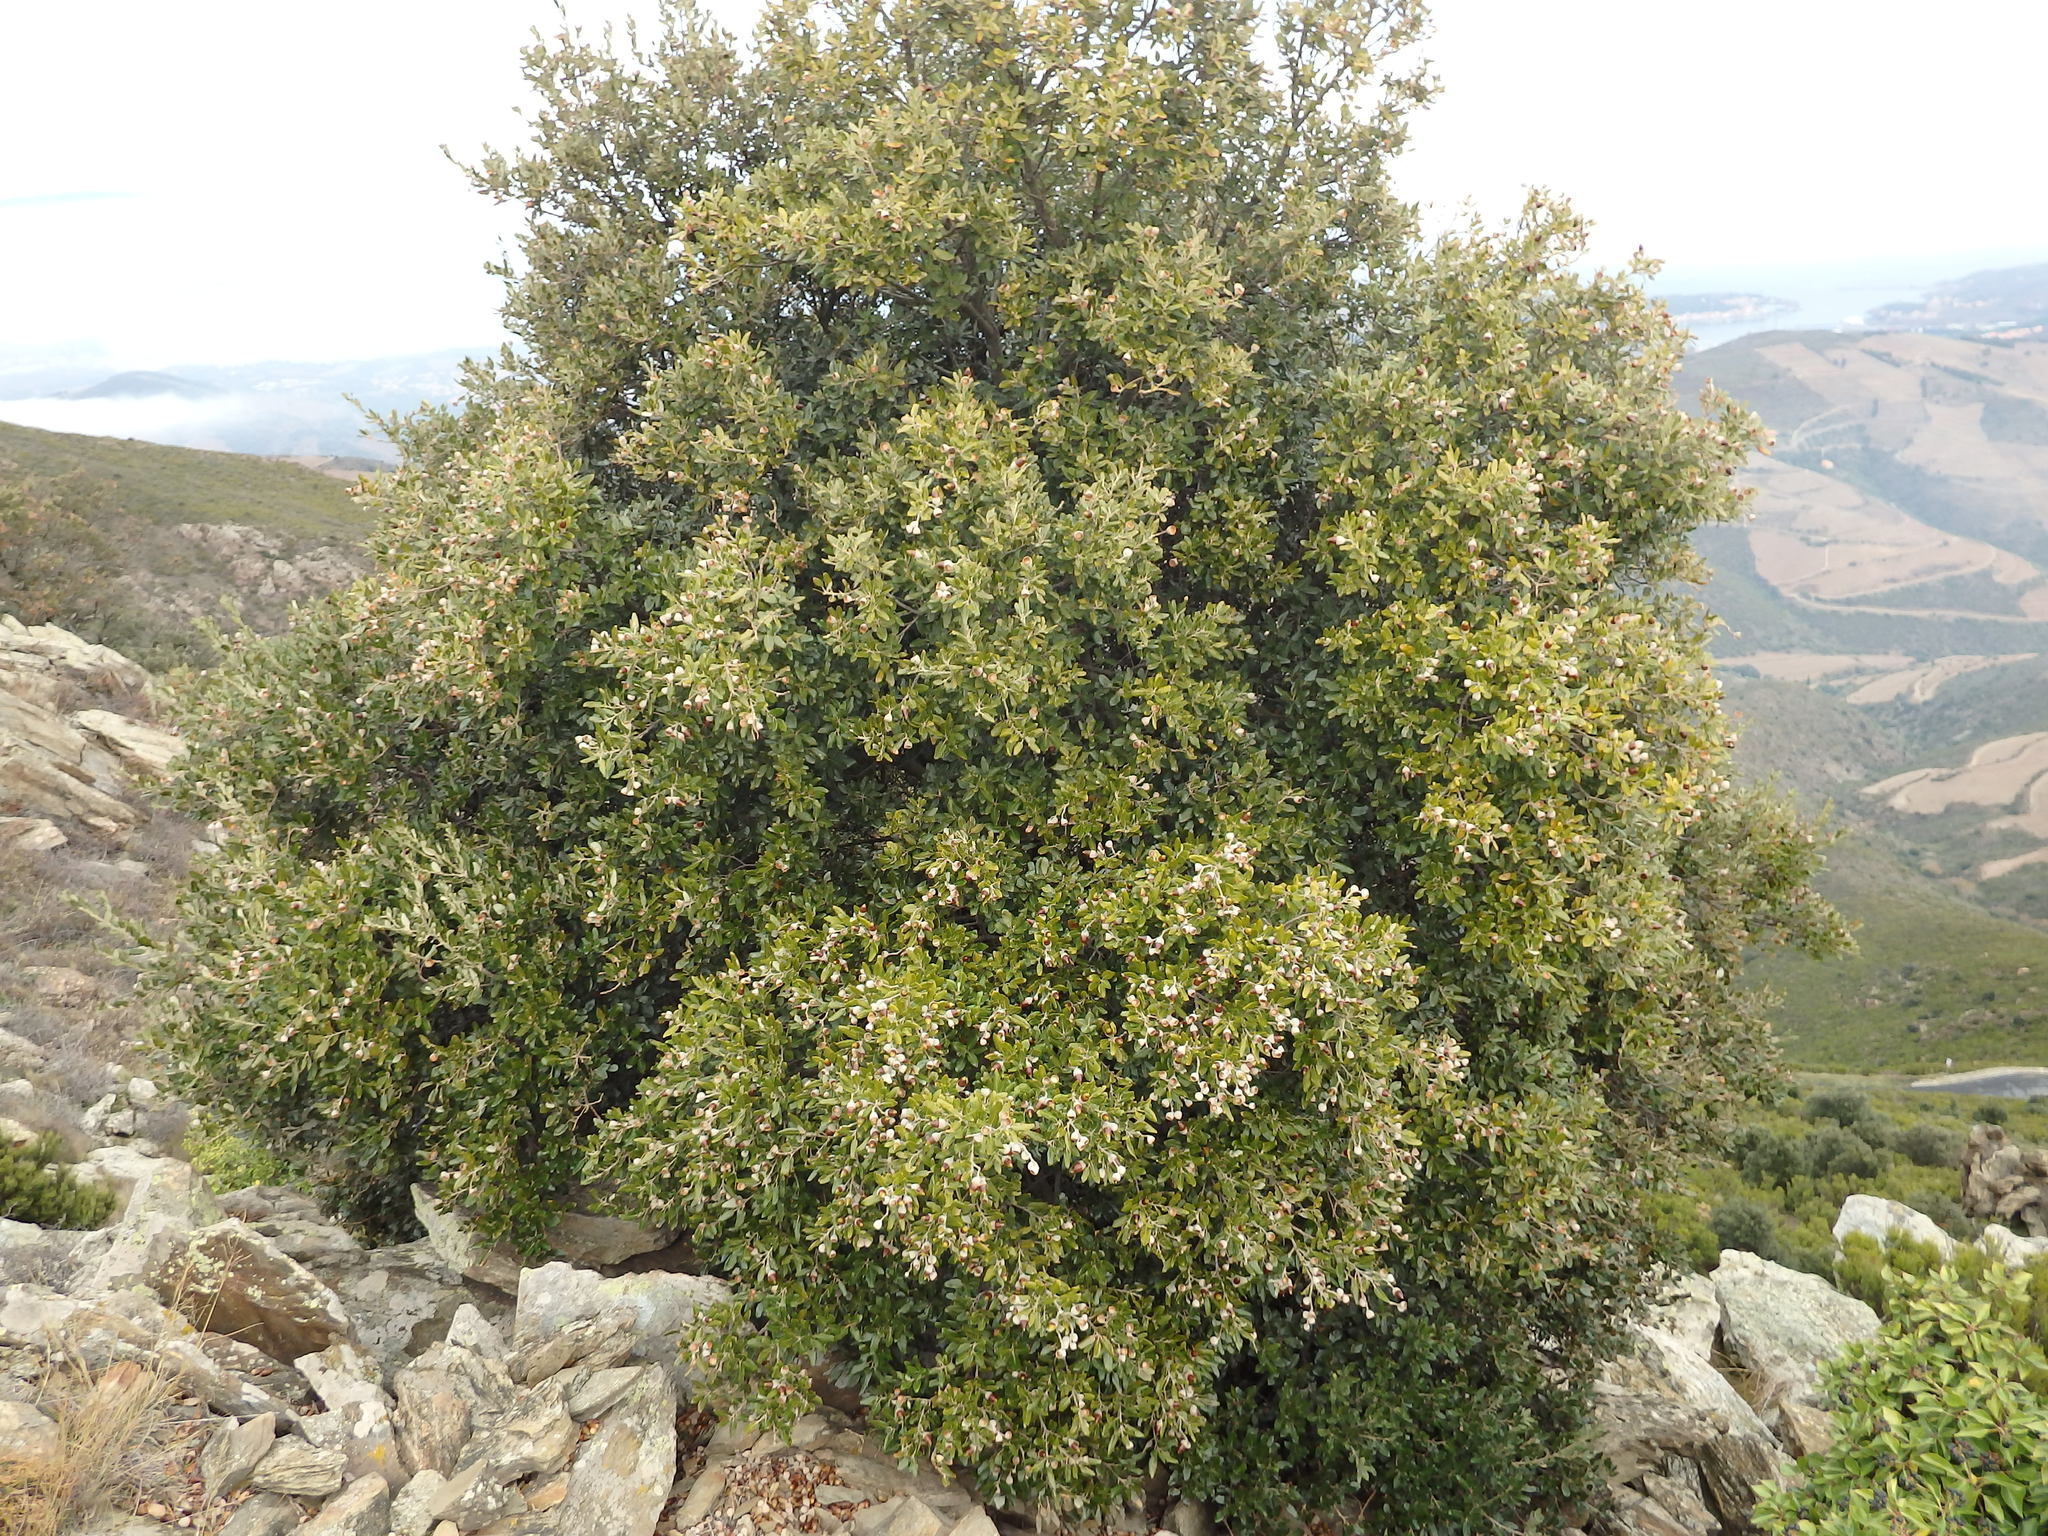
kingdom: Plantae
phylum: Tracheophyta
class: Magnoliopsida
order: Fagales
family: Fagaceae
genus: Quercus
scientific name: Quercus ilex
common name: Evergreen oak
